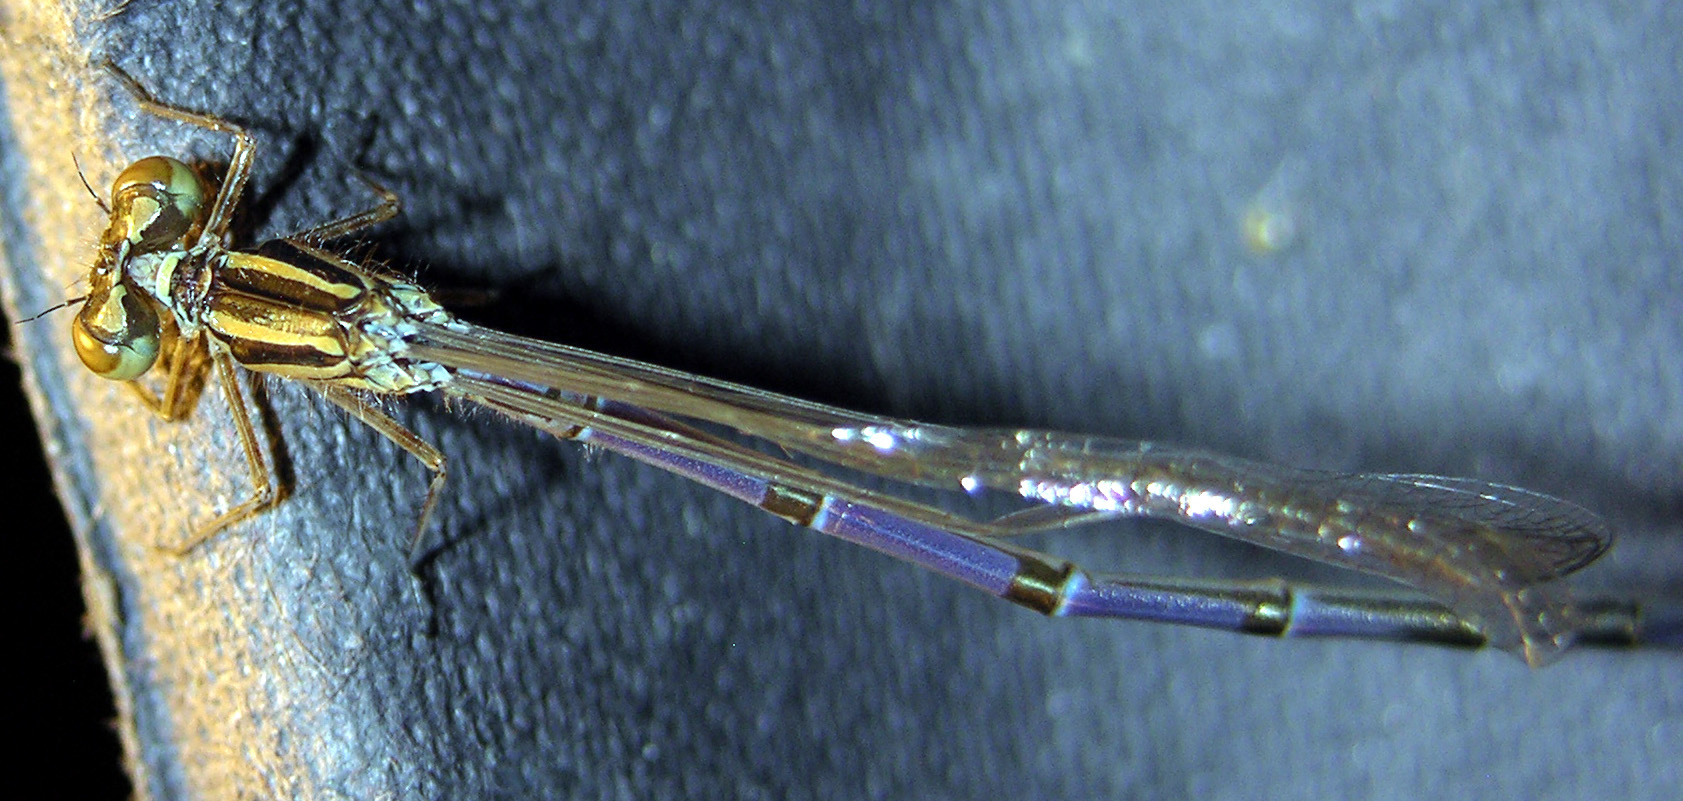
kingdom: Animalia
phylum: Arthropoda
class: Insecta
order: Odonata
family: Coenagrionidae
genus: Coenagrion
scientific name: Coenagrion puella
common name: Azure damselfly
